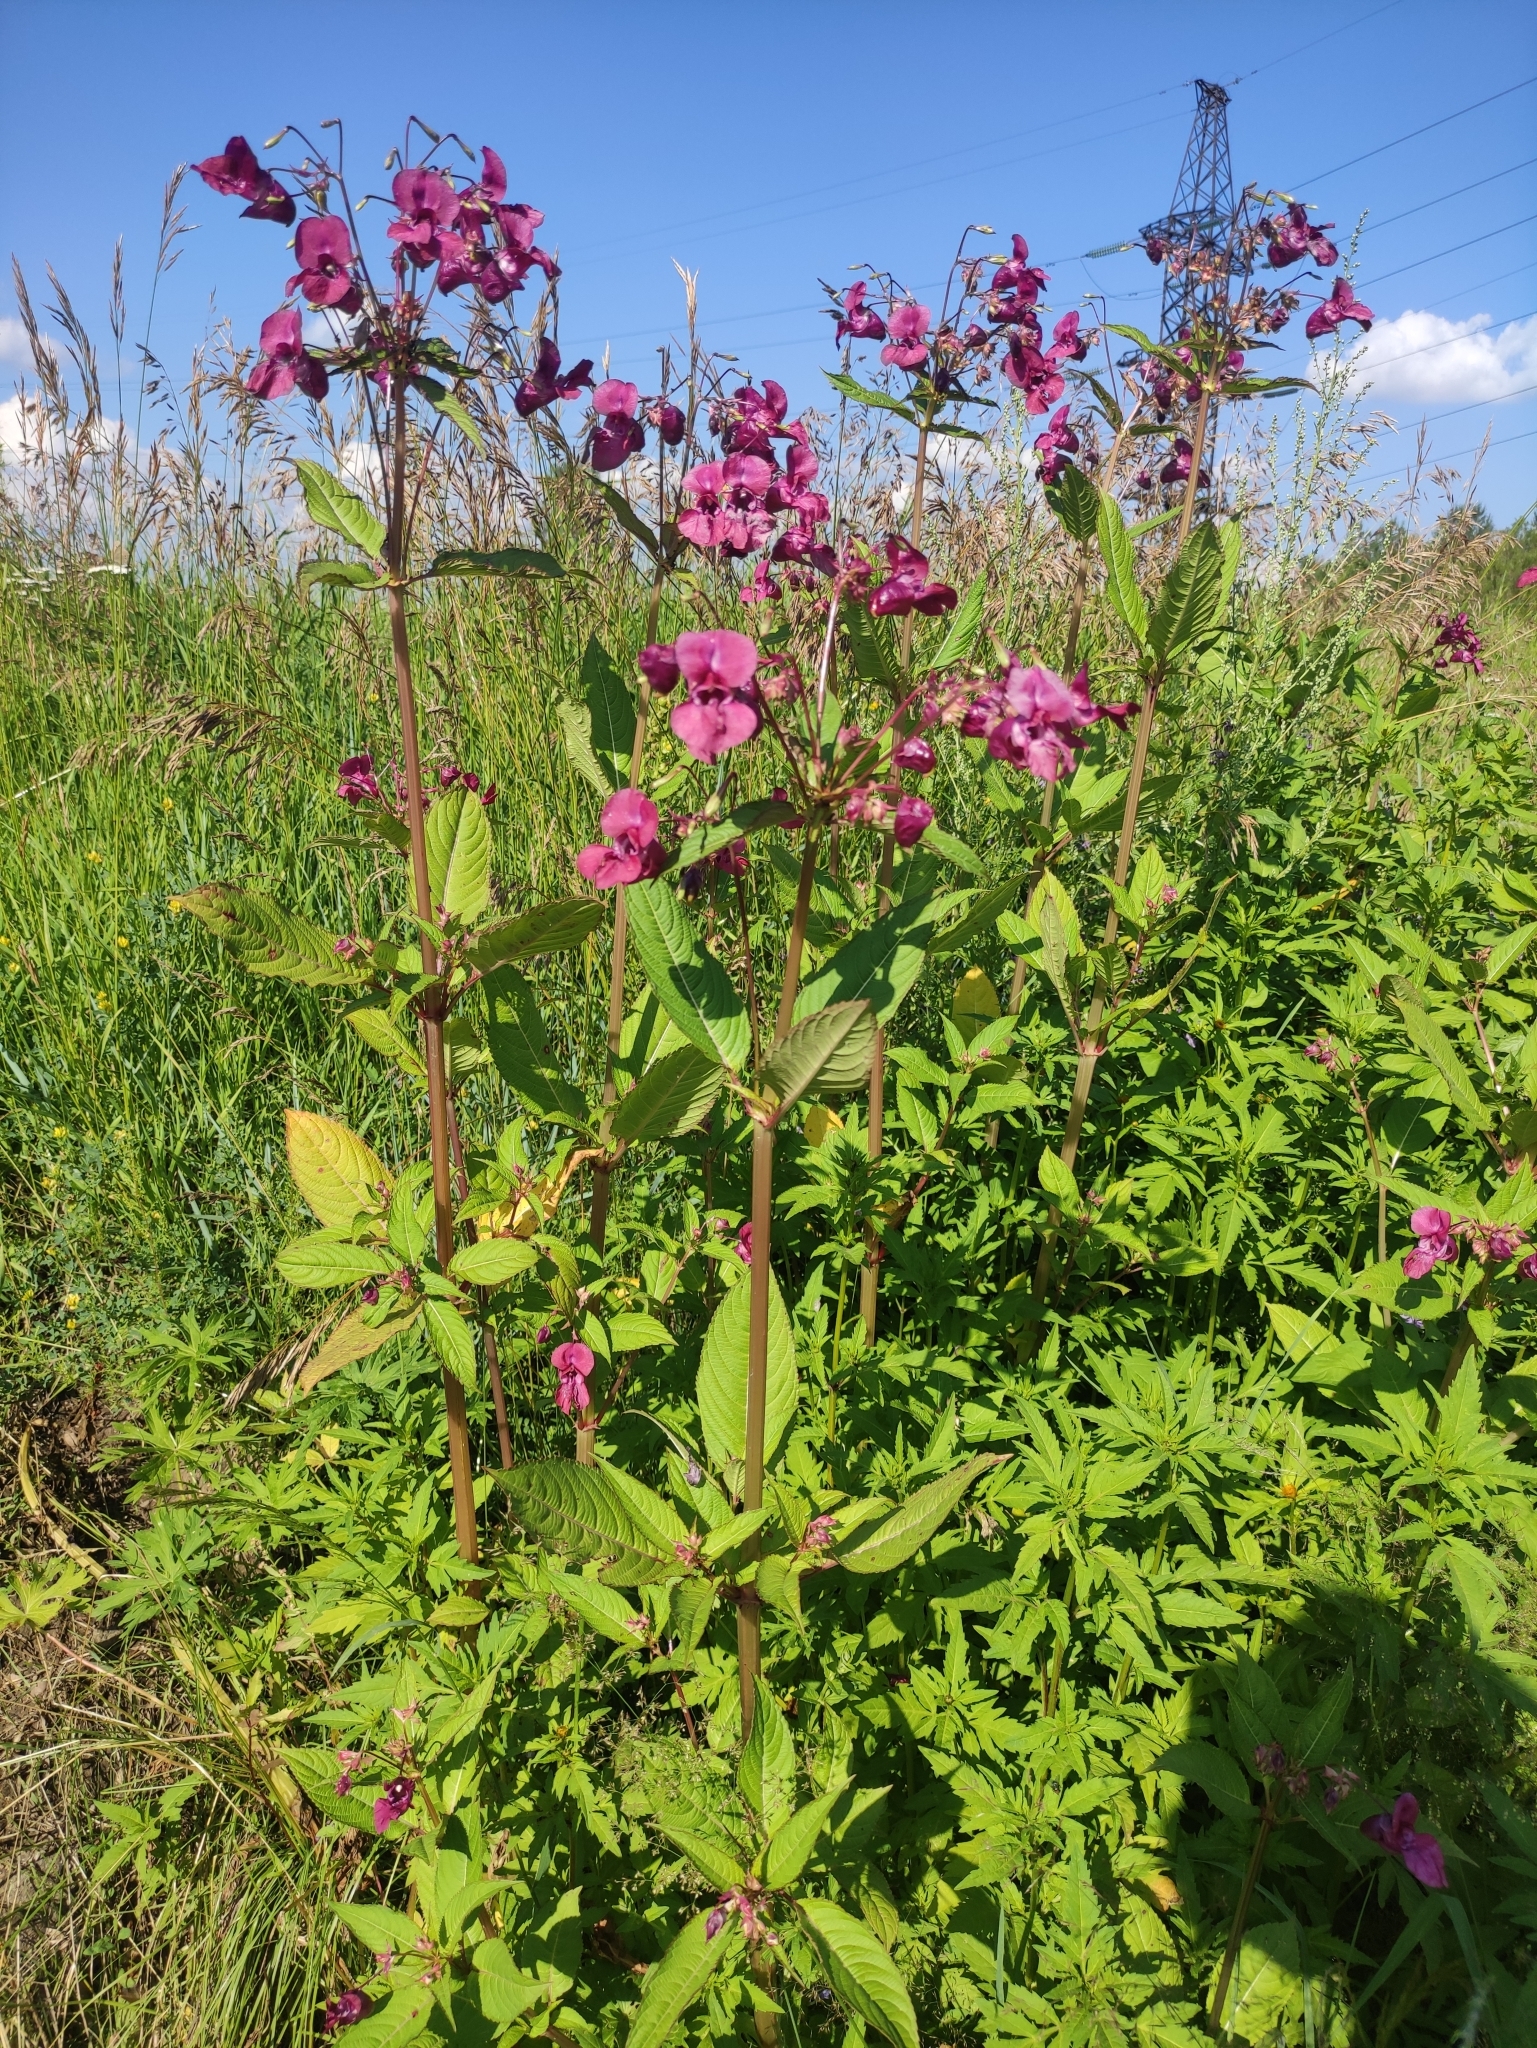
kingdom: Plantae
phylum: Tracheophyta
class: Magnoliopsida
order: Ericales
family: Balsaminaceae
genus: Impatiens
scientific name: Impatiens glandulifera
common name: Himalayan balsam
